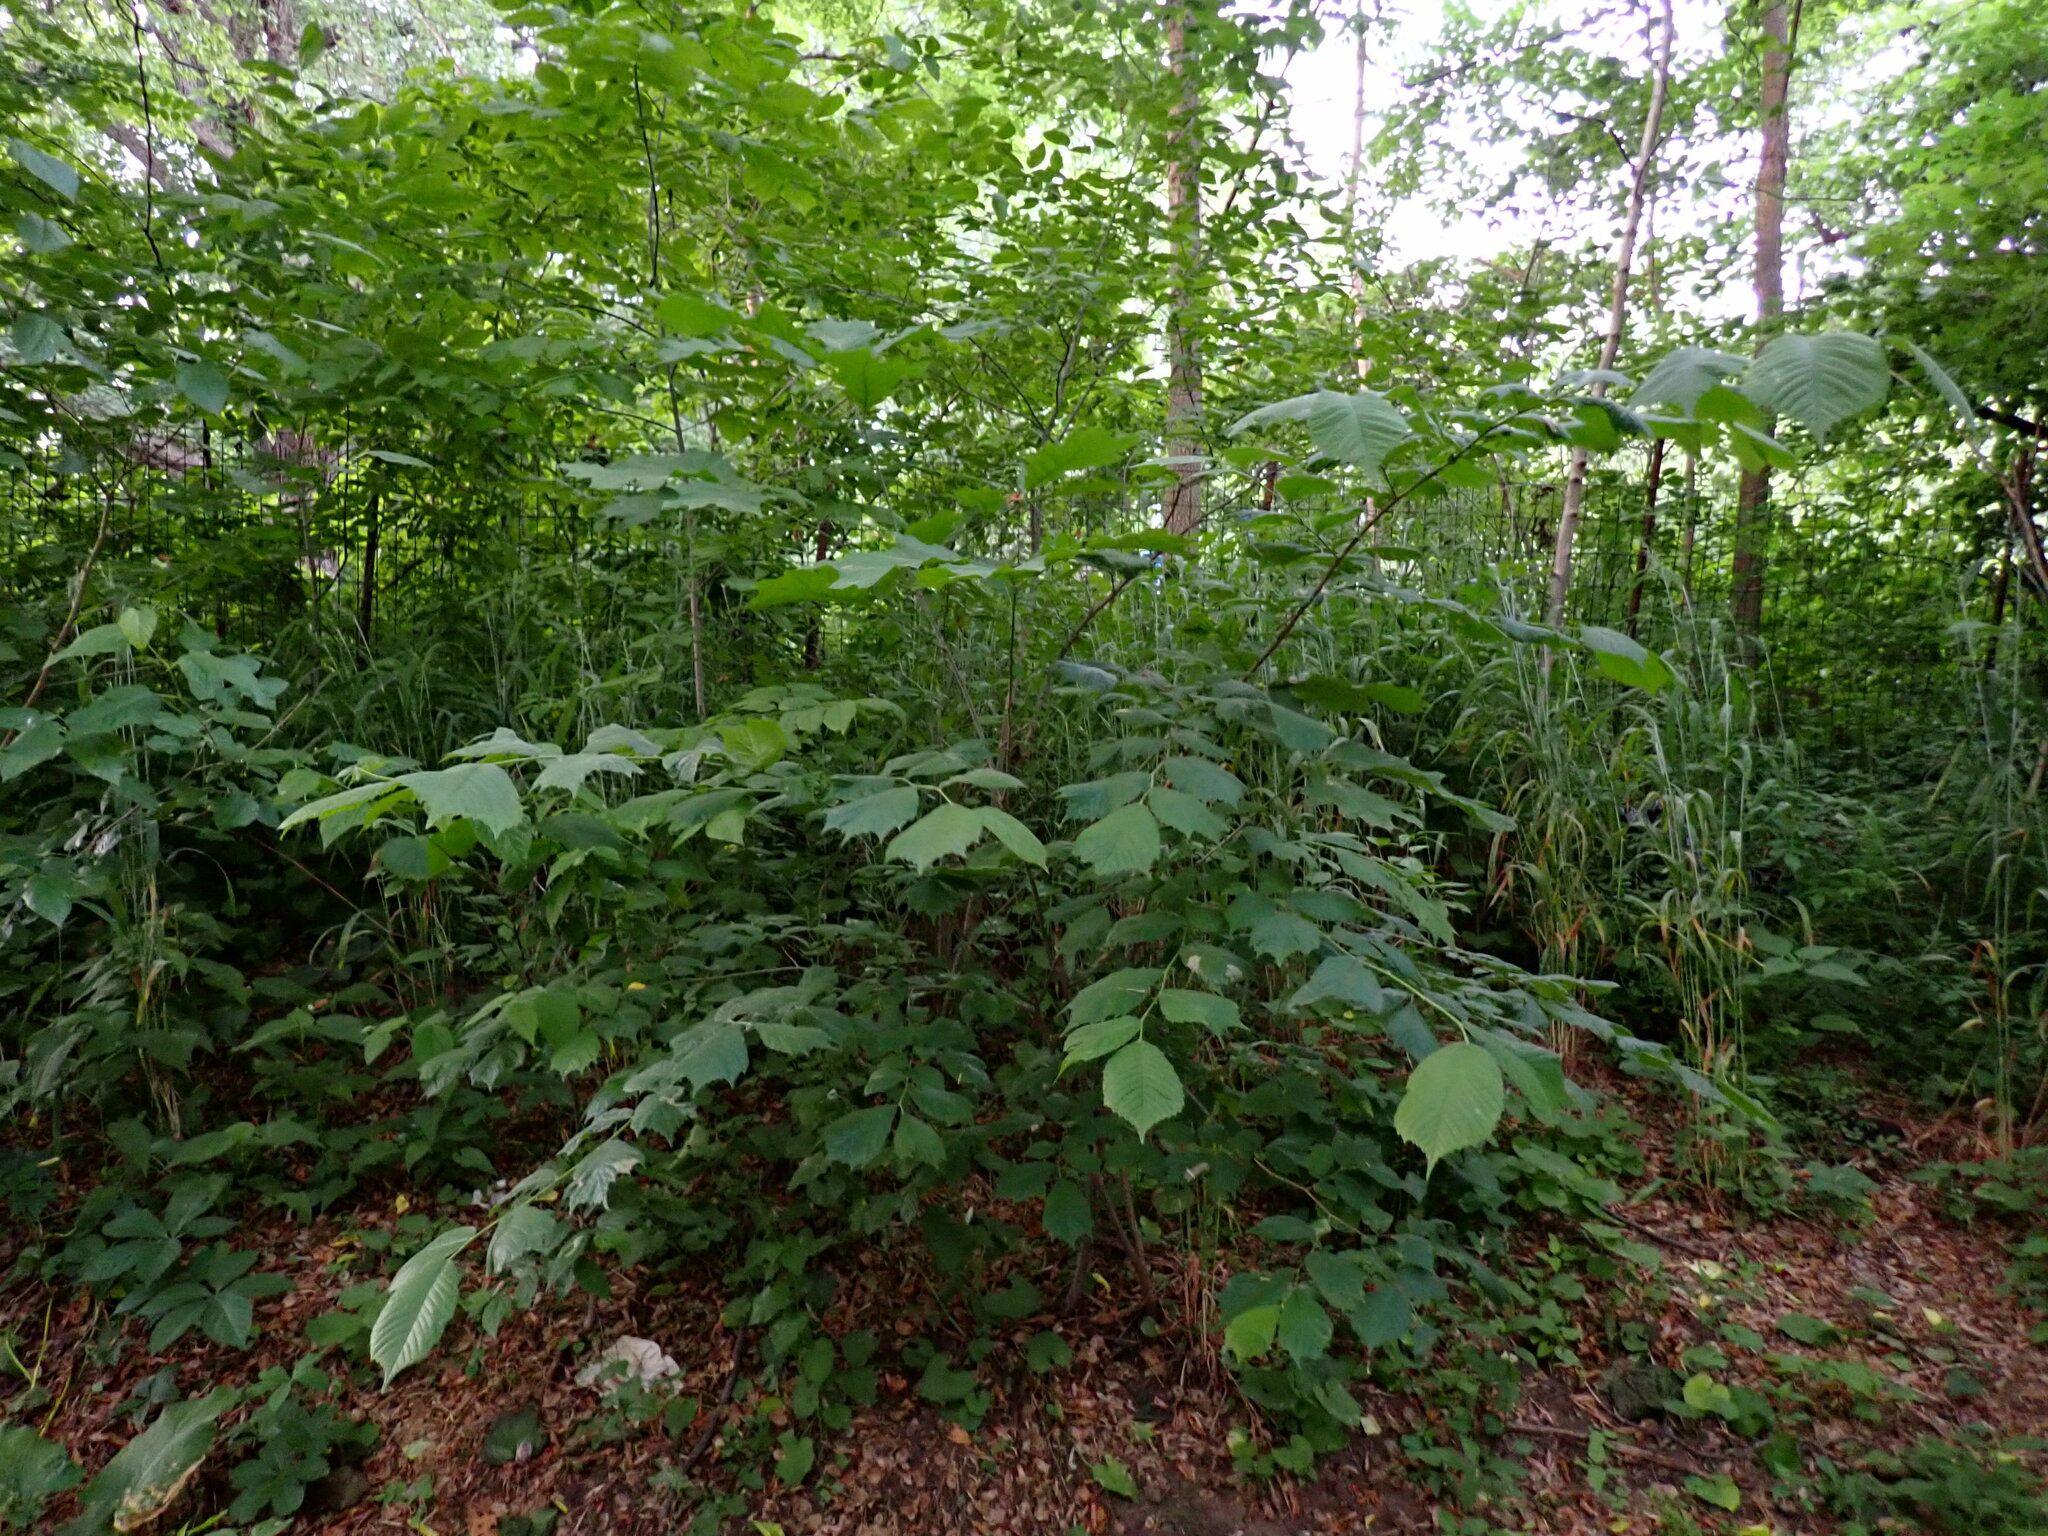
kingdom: Plantae
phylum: Tracheophyta
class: Magnoliopsida
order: Rosales
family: Ulmaceae
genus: Ulmus
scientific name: Ulmus glabra
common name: Wych elm
